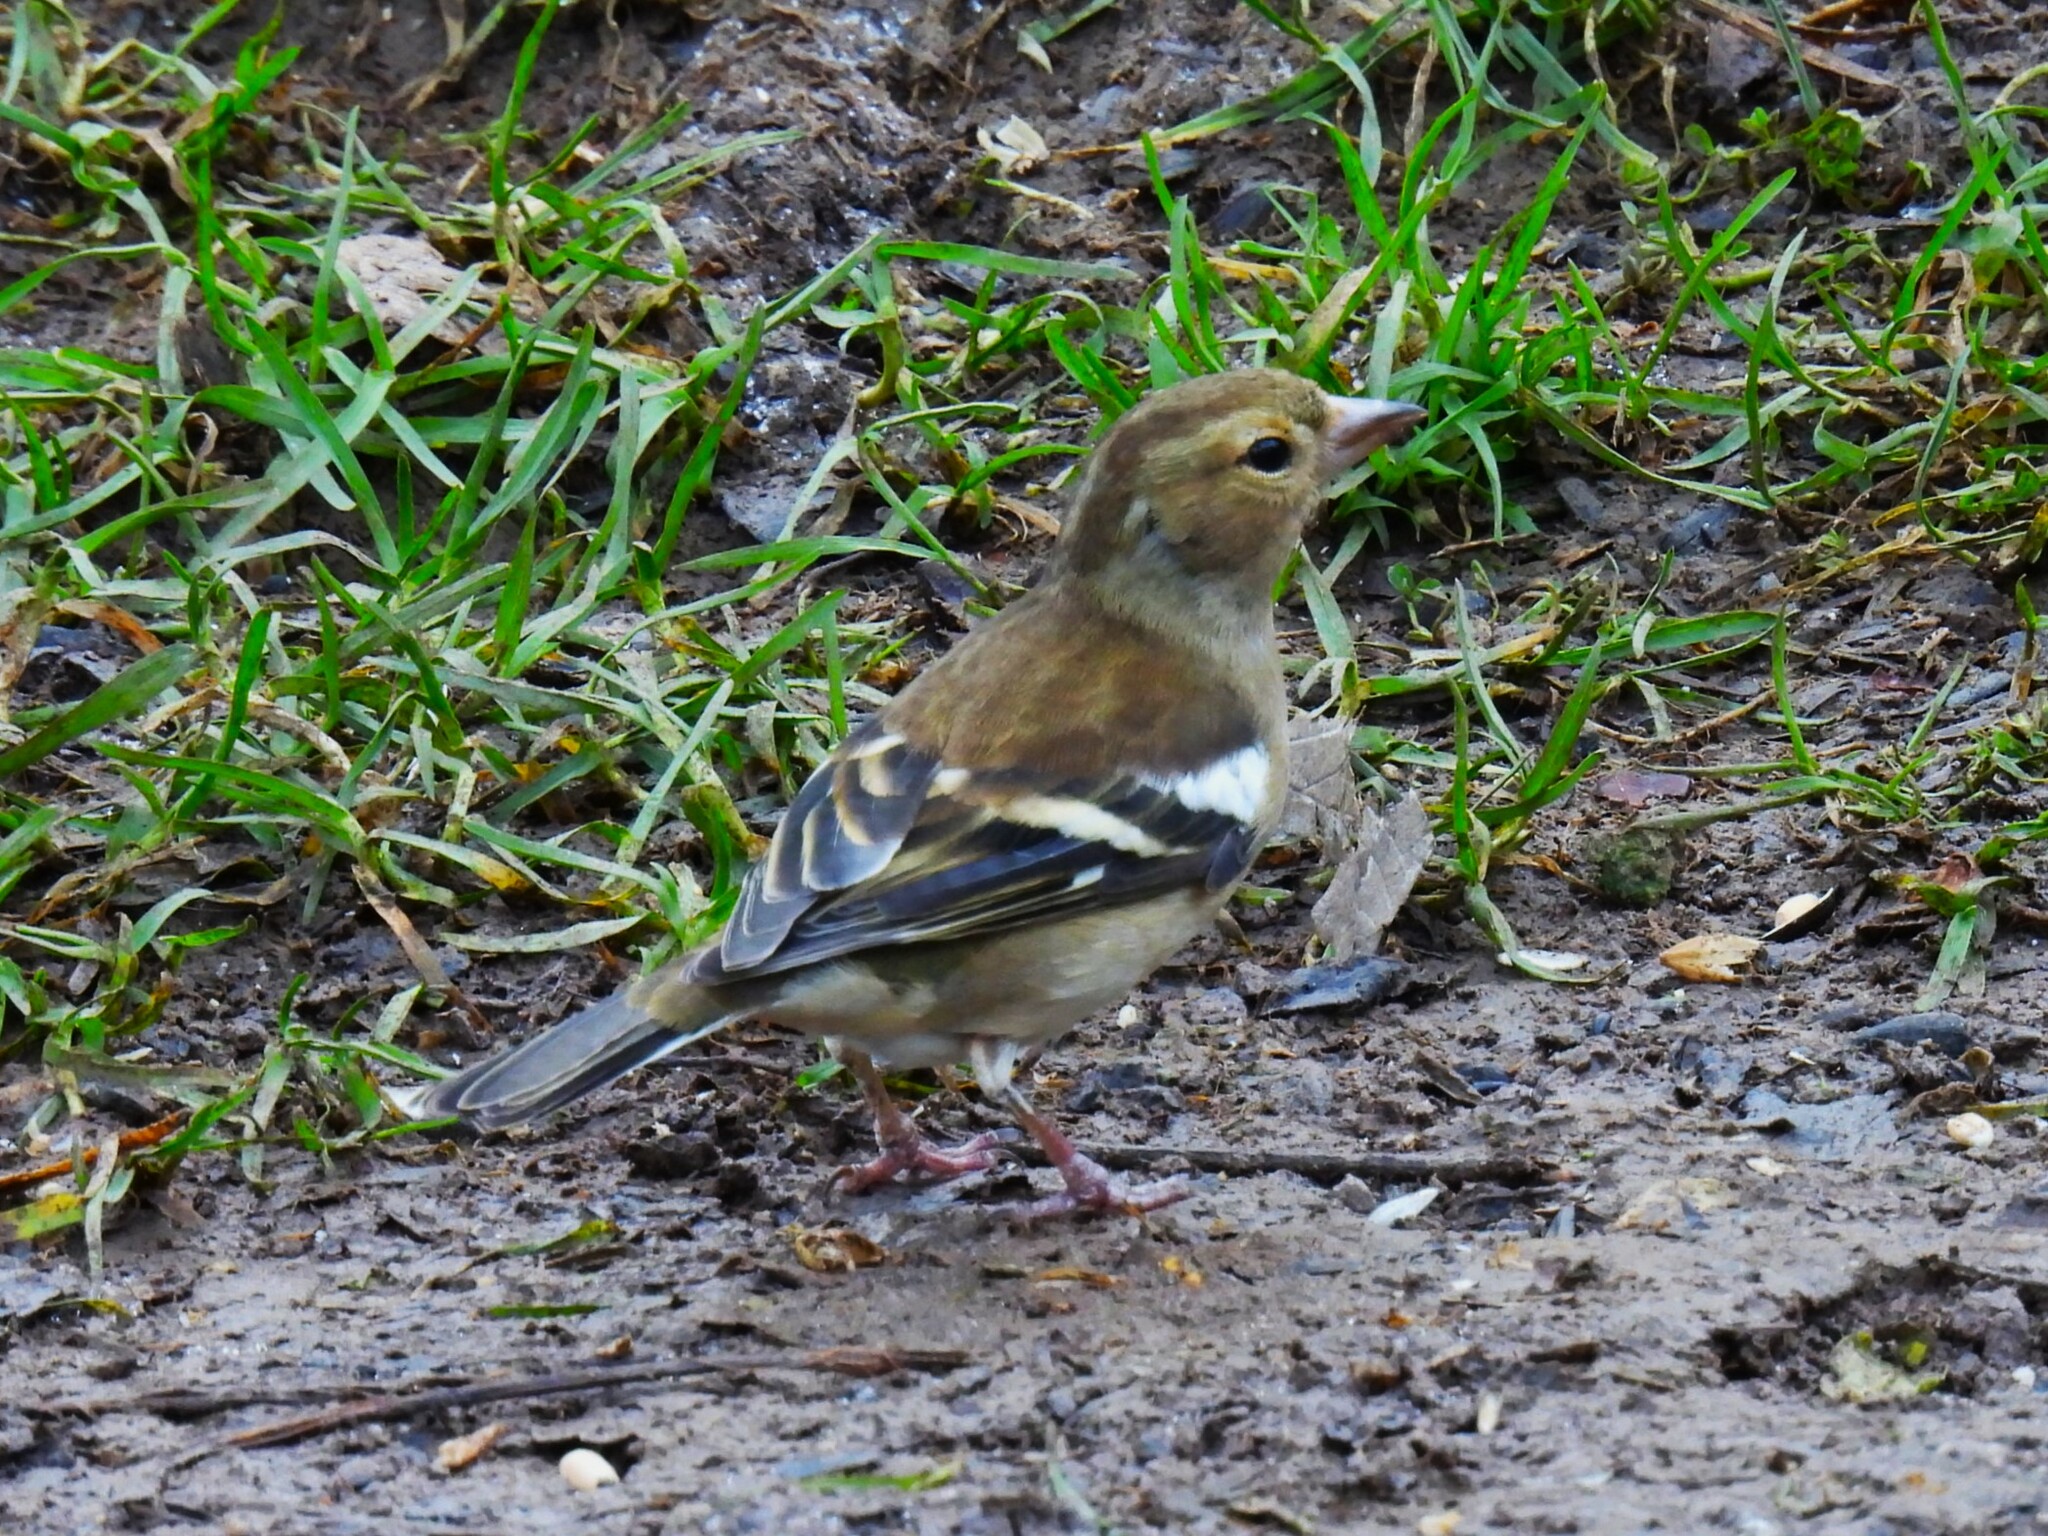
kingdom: Animalia
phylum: Chordata
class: Aves
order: Passeriformes
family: Fringillidae
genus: Fringilla
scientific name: Fringilla coelebs
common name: Common chaffinch
